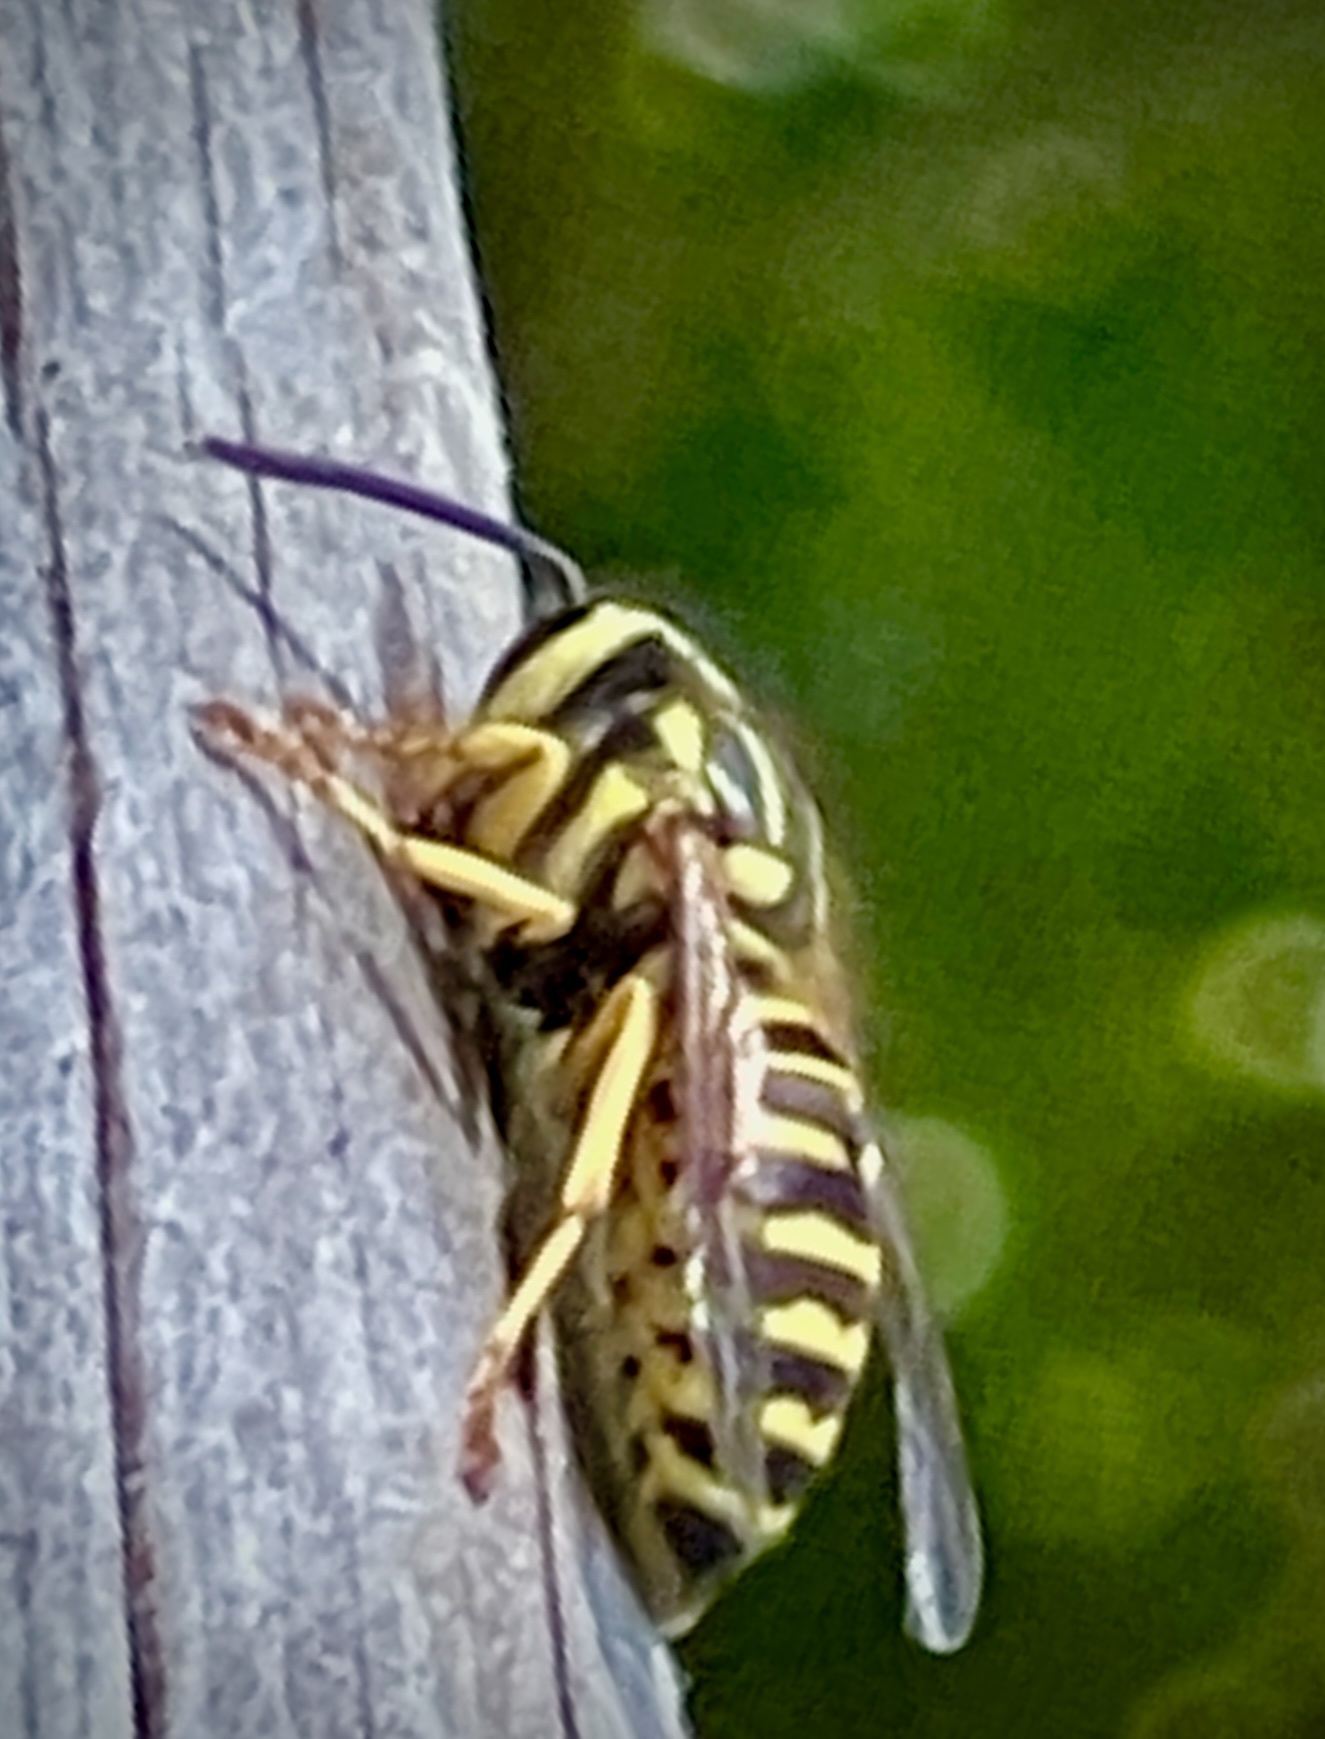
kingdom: Animalia
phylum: Arthropoda
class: Insecta
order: Hymenoptera
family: Vespidae
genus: Vespula
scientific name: Vespula squamosa
